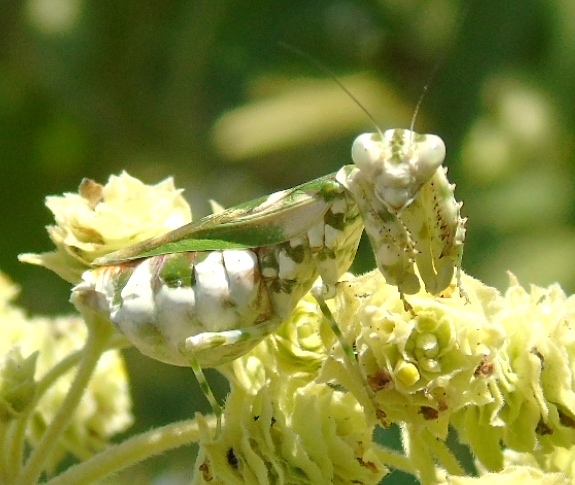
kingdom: Animalia
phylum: Arthropoda
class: Insecta
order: Mantodea
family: Acanthopidae
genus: Acontista
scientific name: Acontista mexicana
